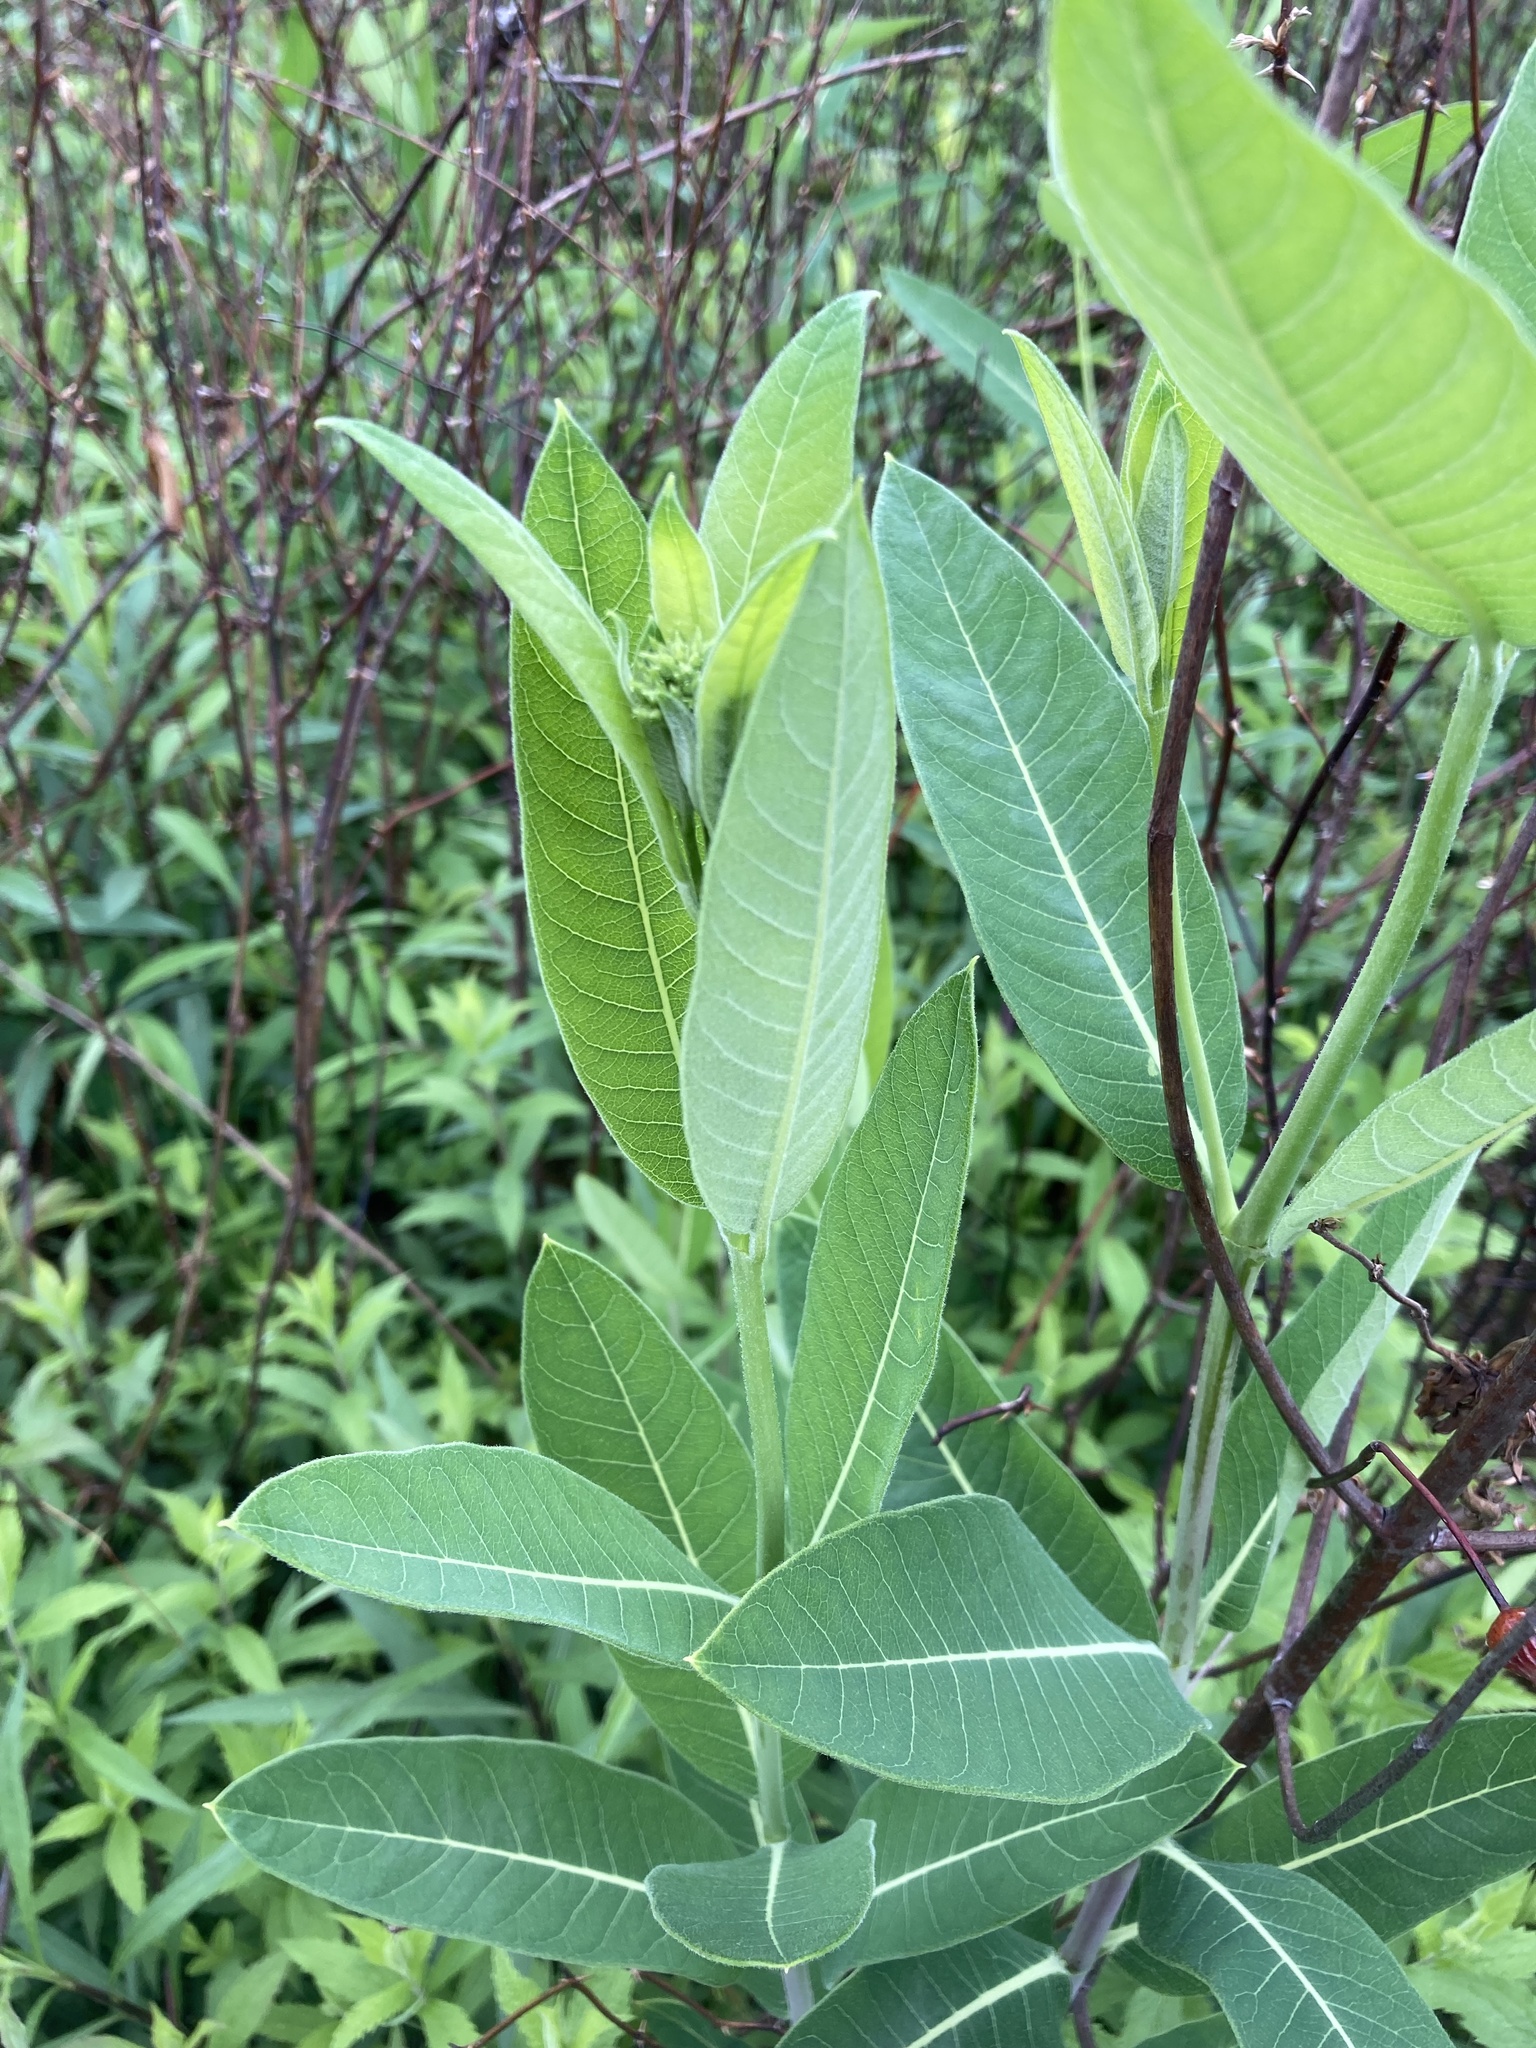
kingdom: Plantae
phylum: Tracheophyta
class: Magnoliopsida
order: Gentianales
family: Apocynaceae
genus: Apocynum
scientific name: Apocynum cannabinum
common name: Hemp dogbane
